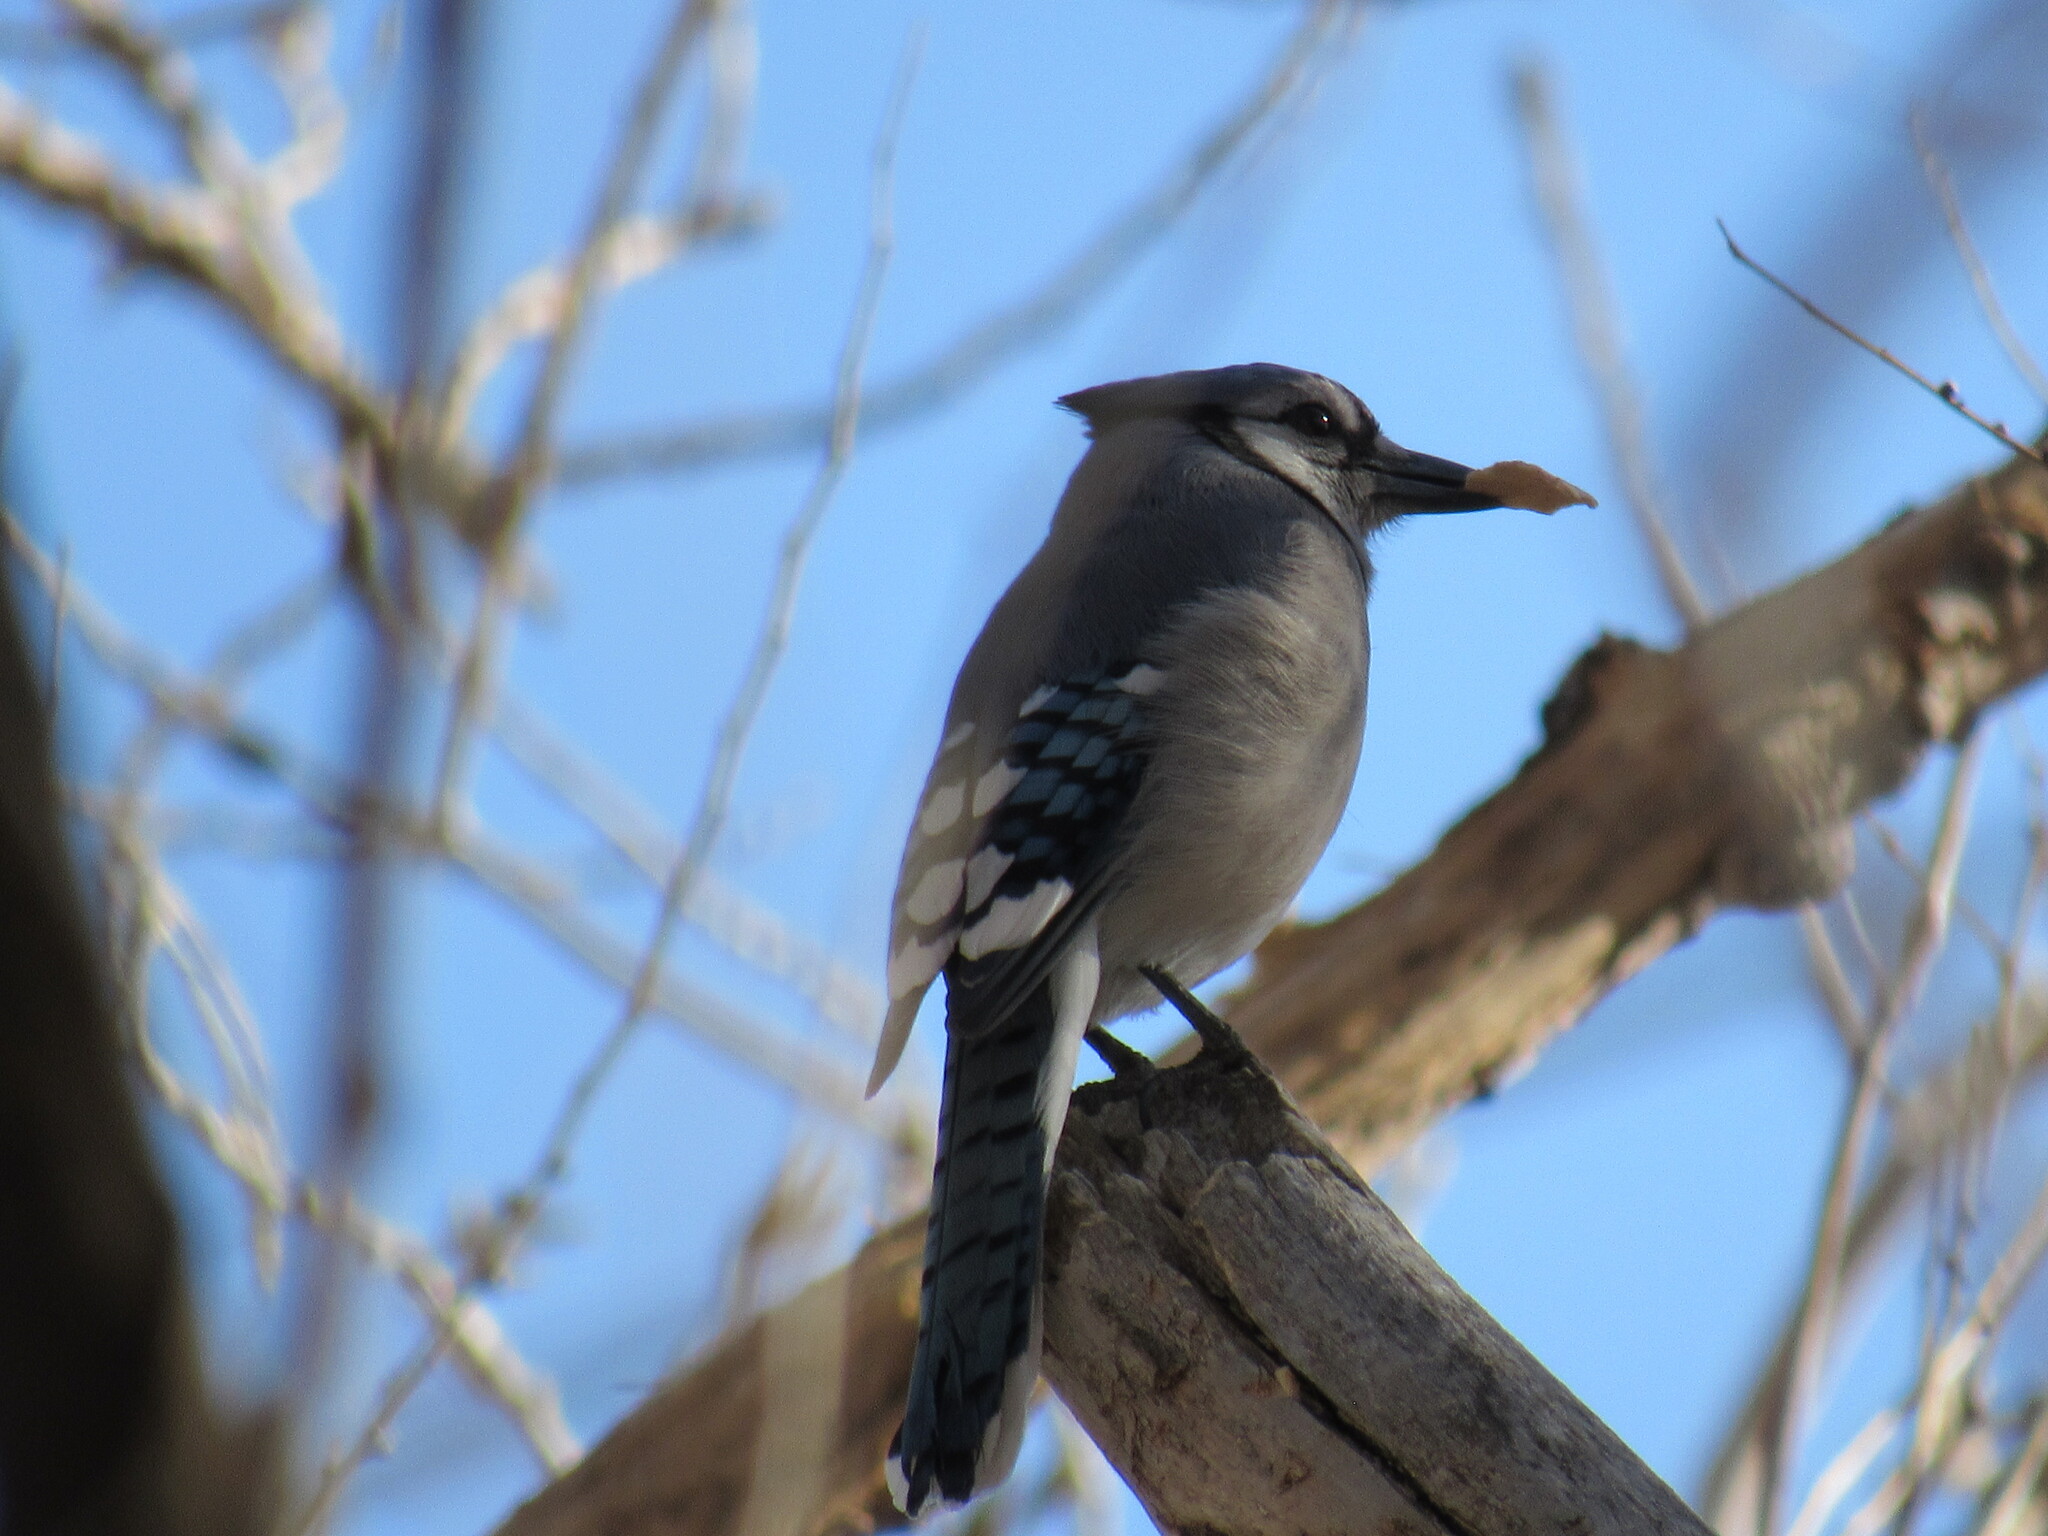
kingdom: Animalia
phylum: Chordata
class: Aves
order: Passeriformes
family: Corvidae
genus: Cyanocitta
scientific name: Cyanocitta cristata
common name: Blue jay
